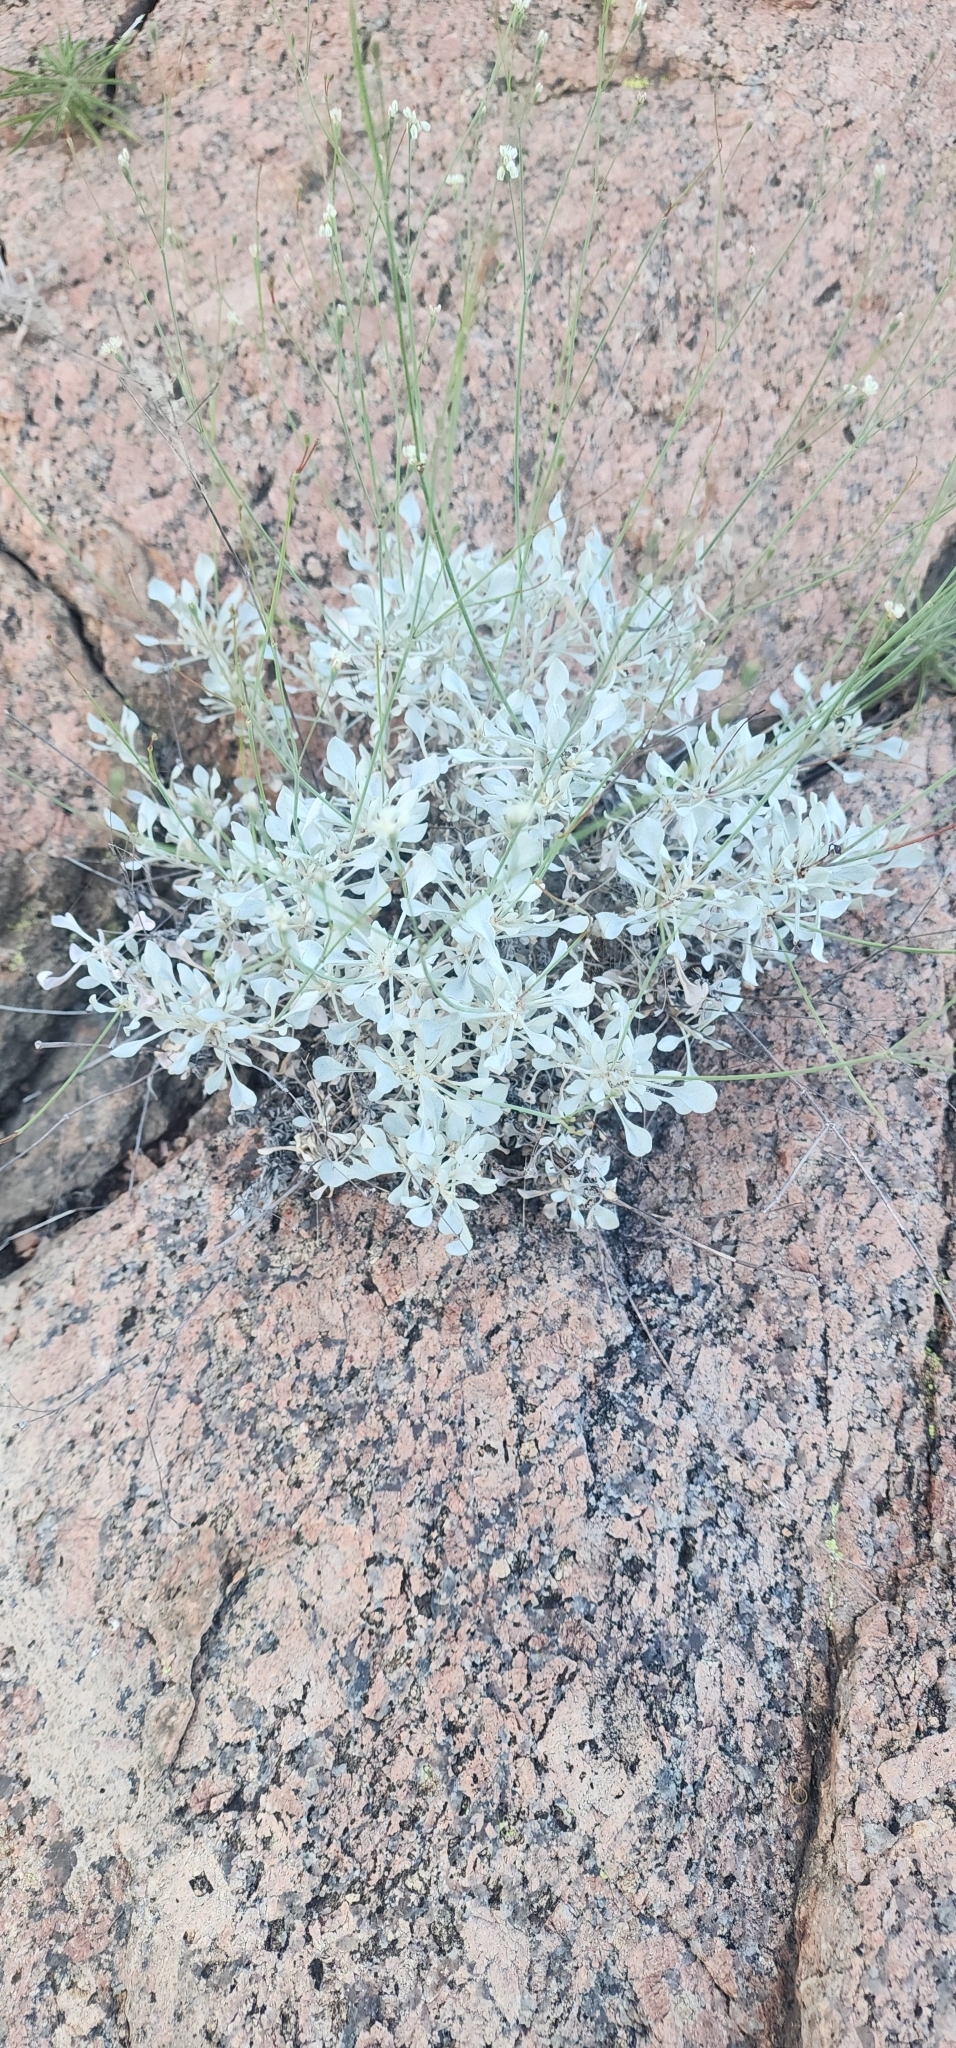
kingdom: Plantae
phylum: Tracheophyta
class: Magnoliopsida
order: Caryophyllales
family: Polygonaceae
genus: Eriogonum
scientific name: Eriogonum graniticum
